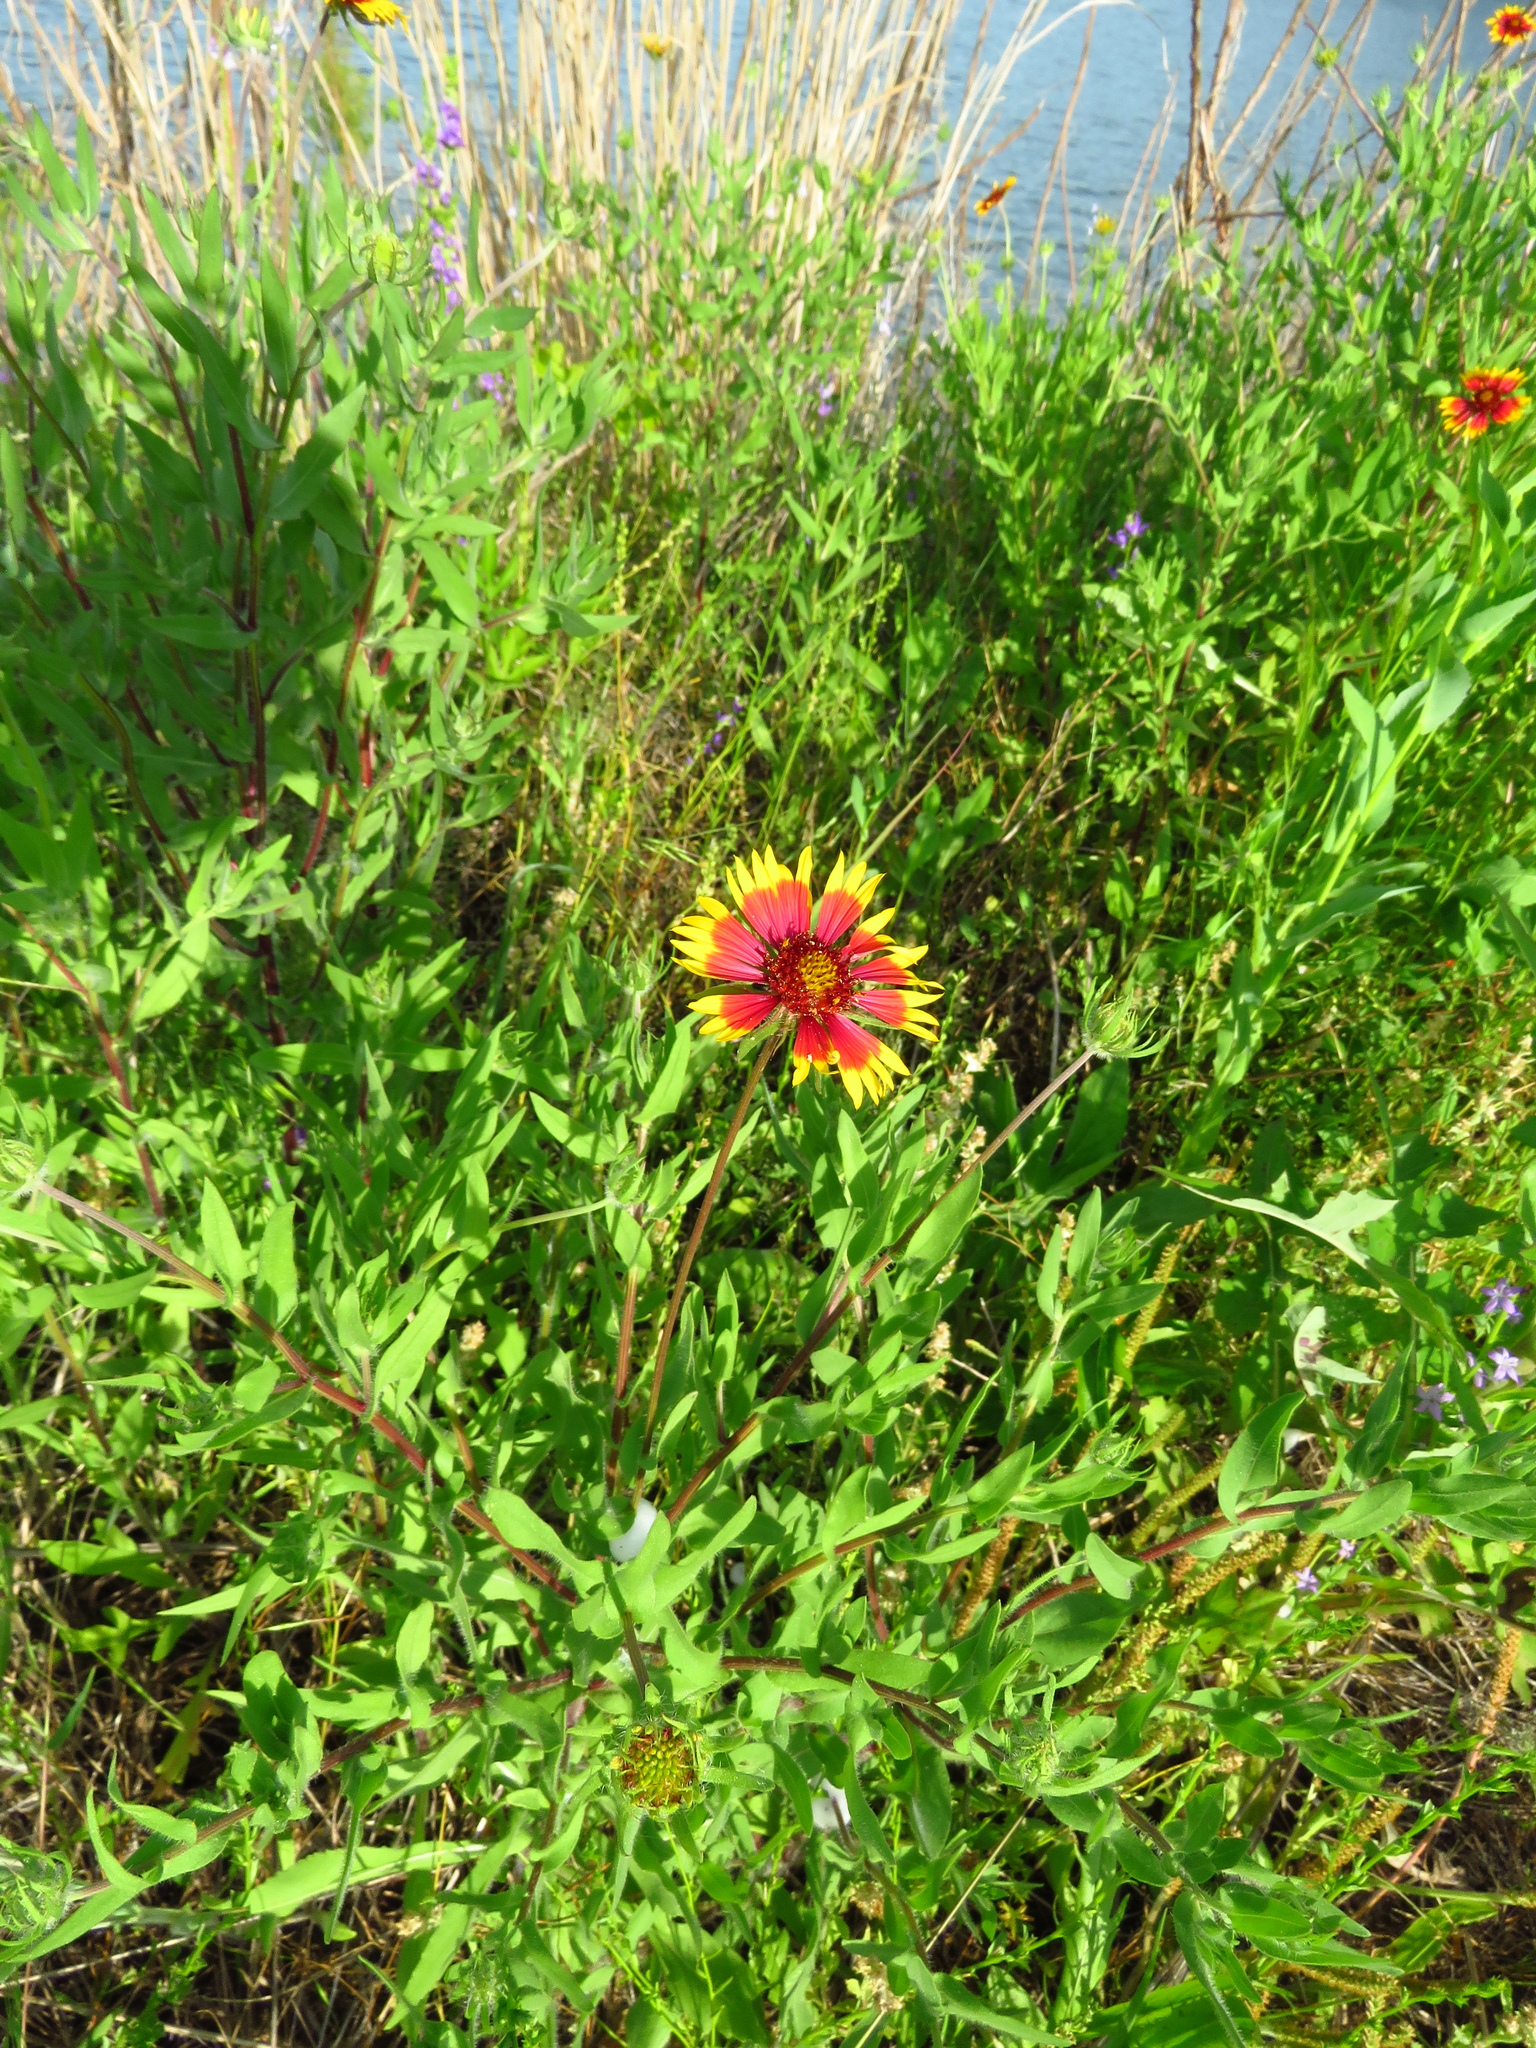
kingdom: Plantae
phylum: Tracheophyta
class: Magnoliopsida
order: Asterales
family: Asteraceae
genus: Gaillardia
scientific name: Gaillardia pulchella
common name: Firewheel
